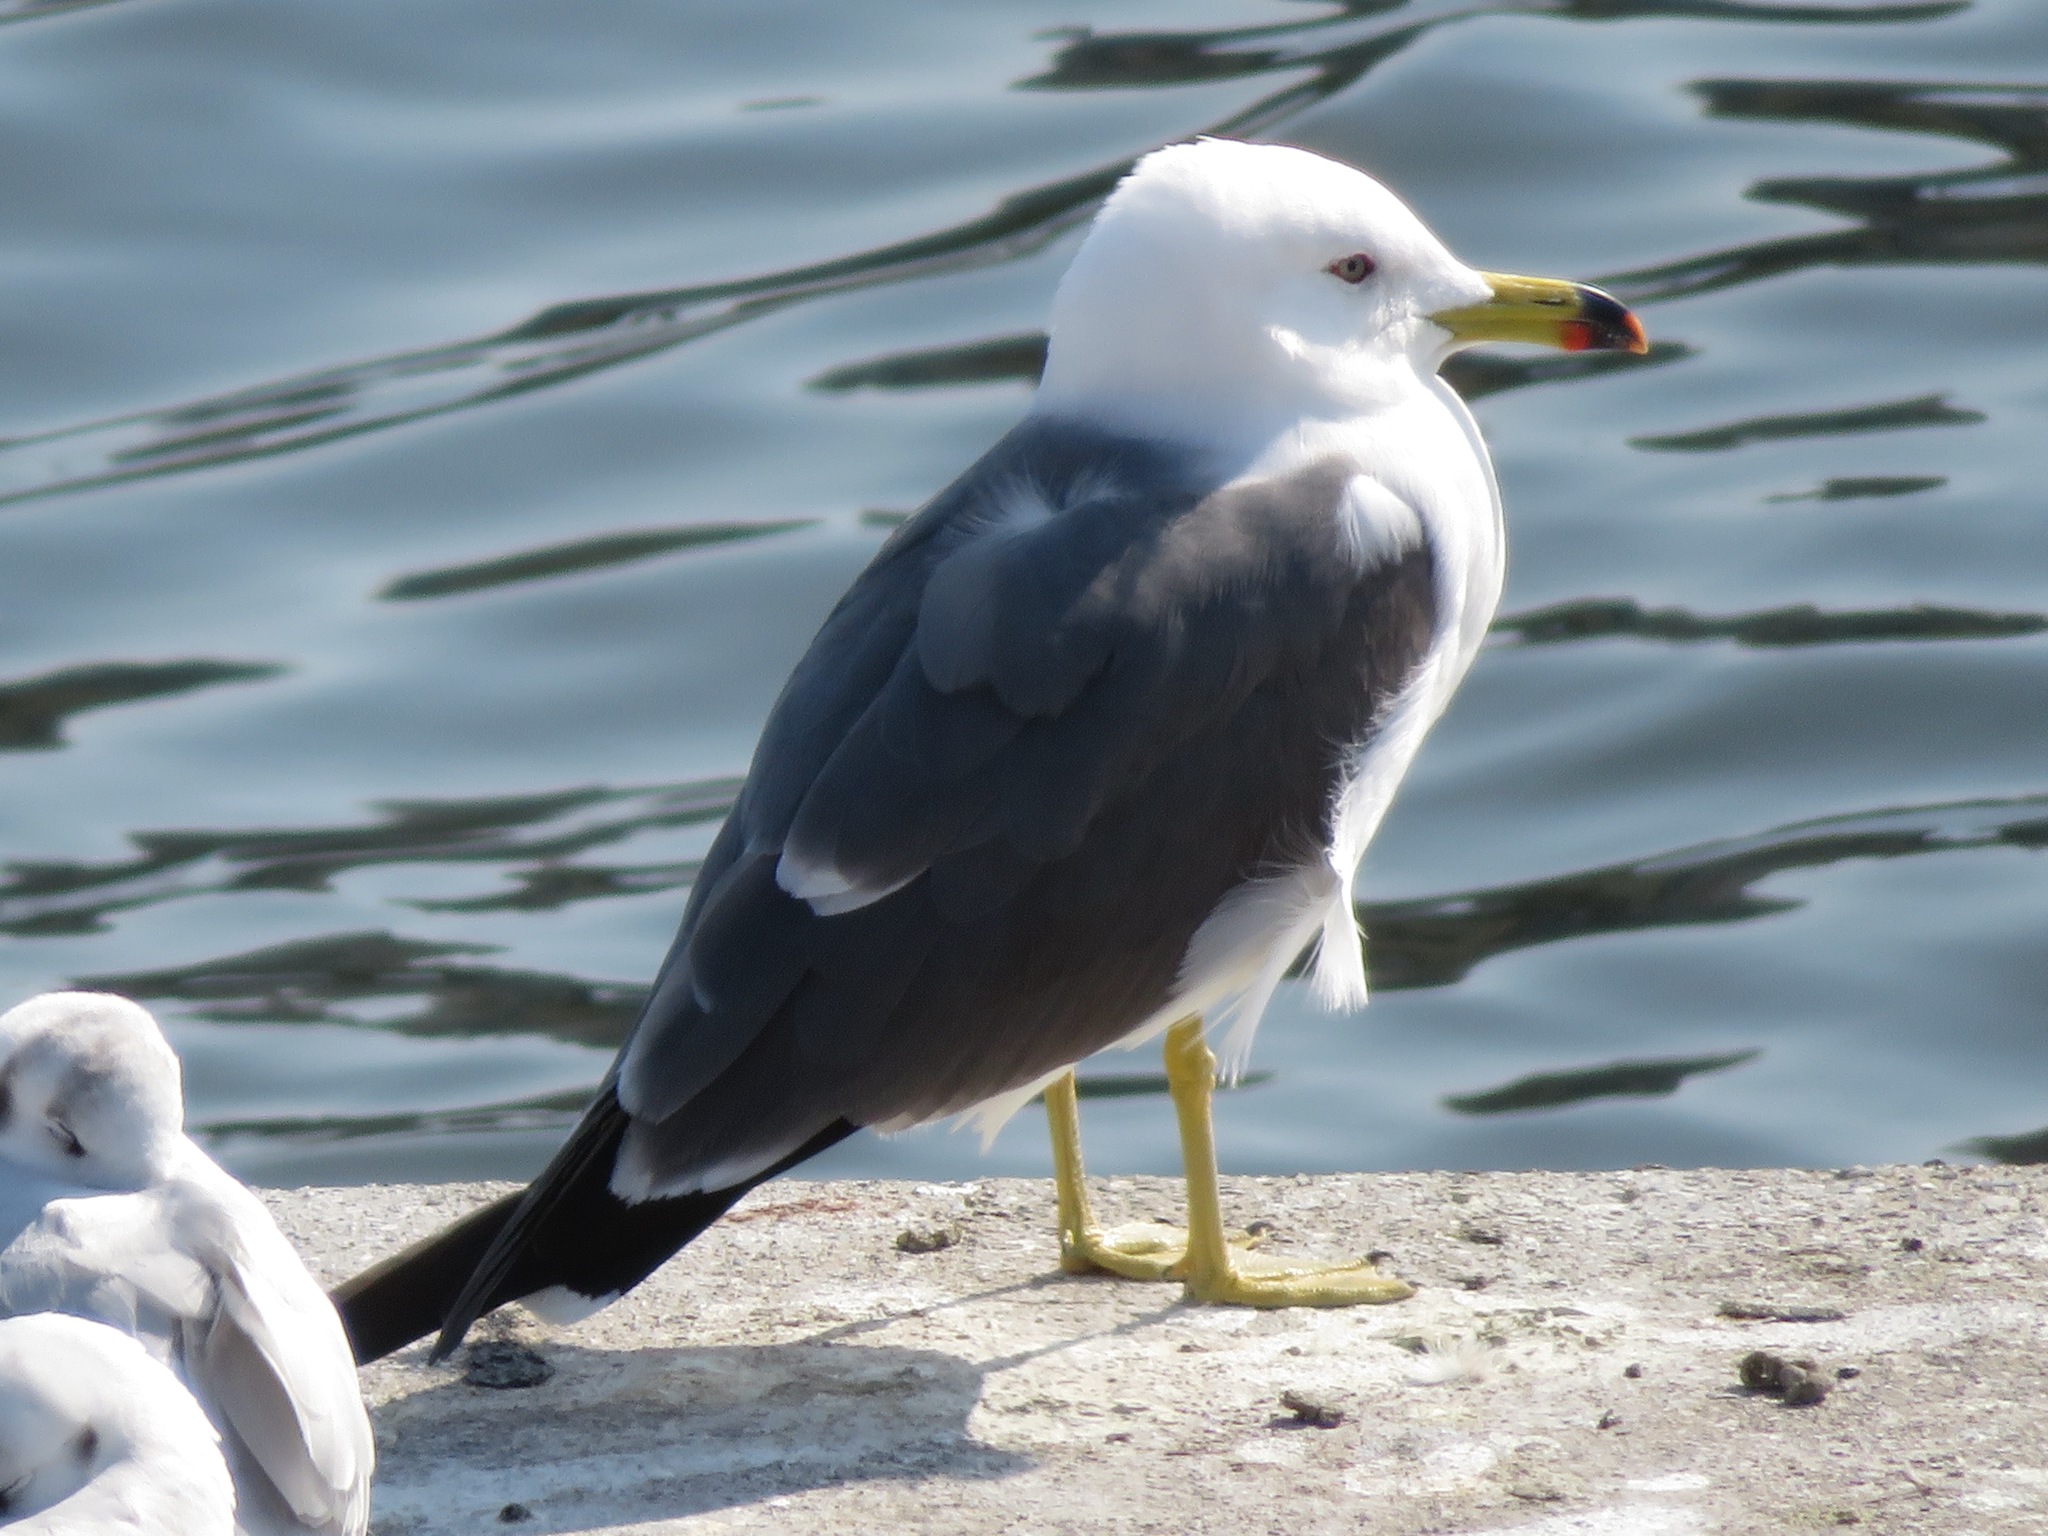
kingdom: Animalia
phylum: Chordata
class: Aves
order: Charadriiformes
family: Laridae
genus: Larus
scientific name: Larus crassirostris
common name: Black-tailed gull
